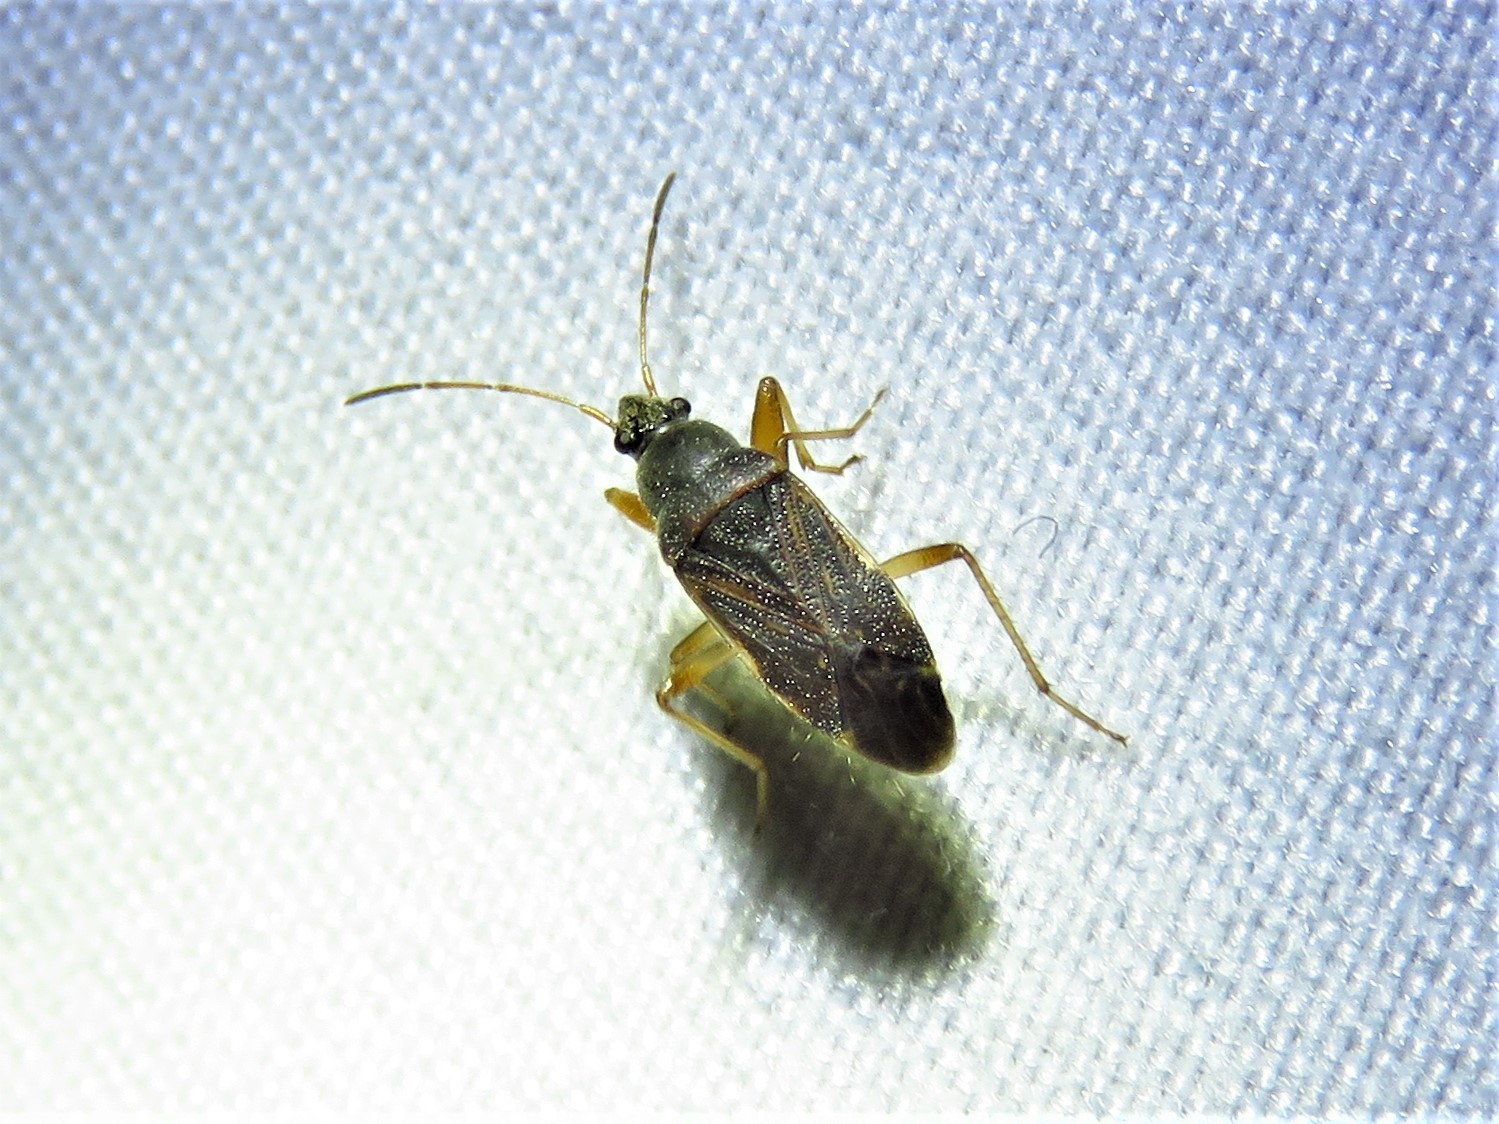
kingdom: Animalia
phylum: Arthropoda
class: Insecta
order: Hemiptera
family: Rhyparochromidae
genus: Zeridoneus
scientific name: Zeridoneus knulli
